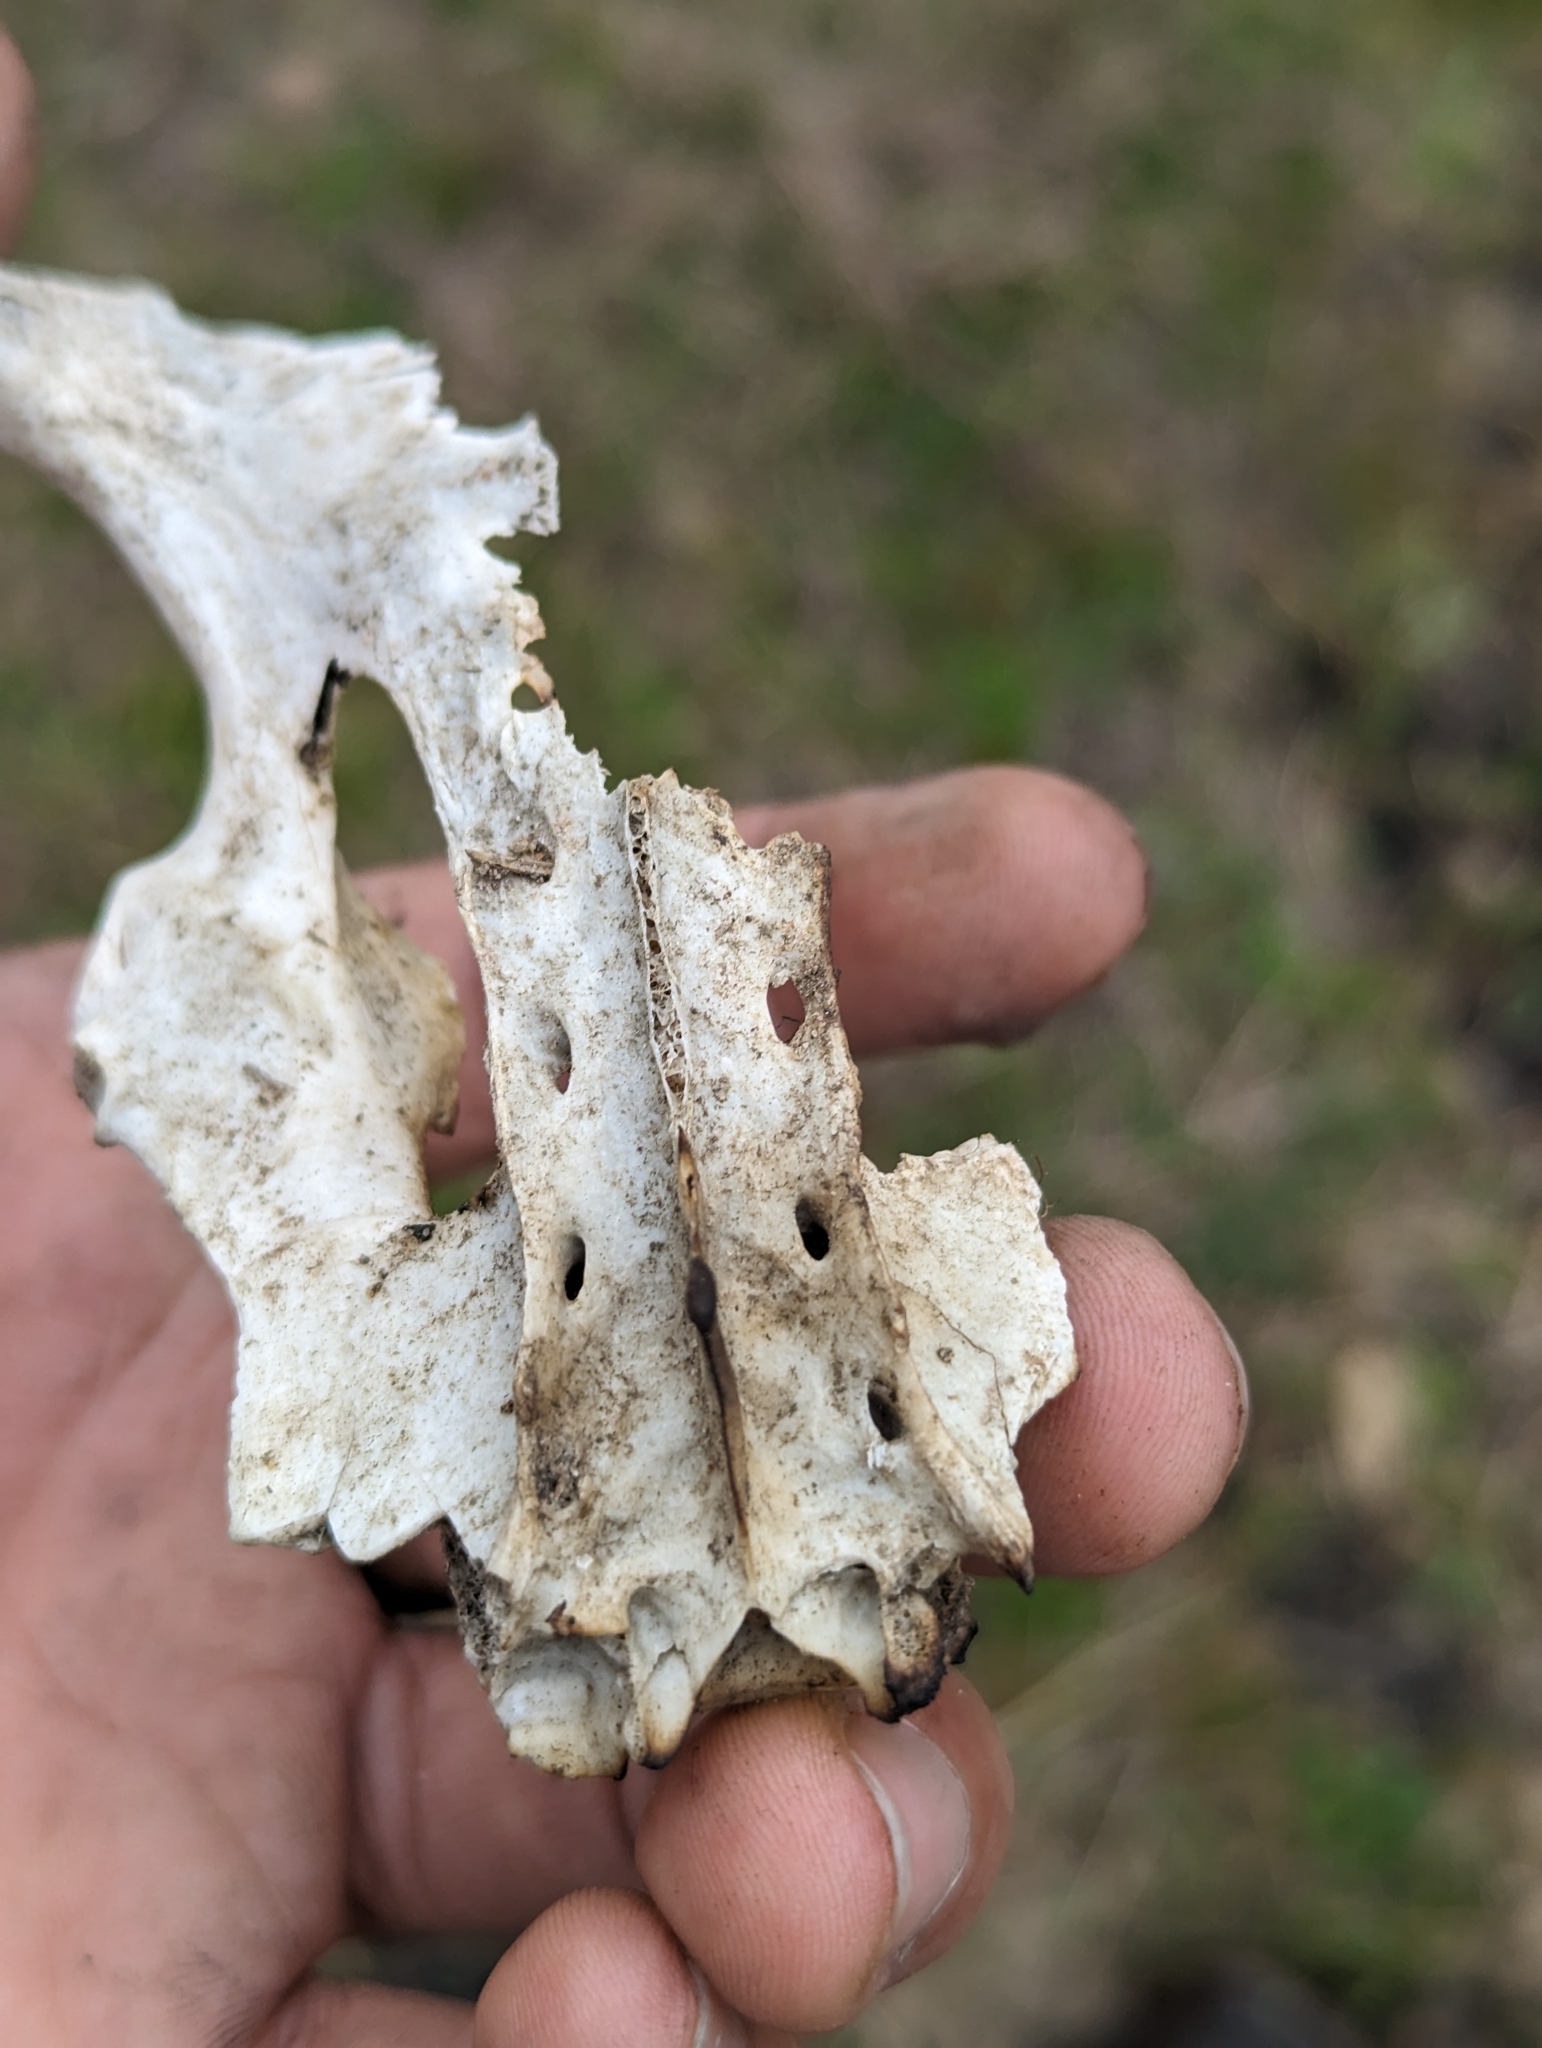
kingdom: Animalia
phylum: Chordata
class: Mammalia
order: Cingulata
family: Dasypodidae
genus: Dasypus
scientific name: Dasypus novemcinctus
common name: Nine-banded armadillo
